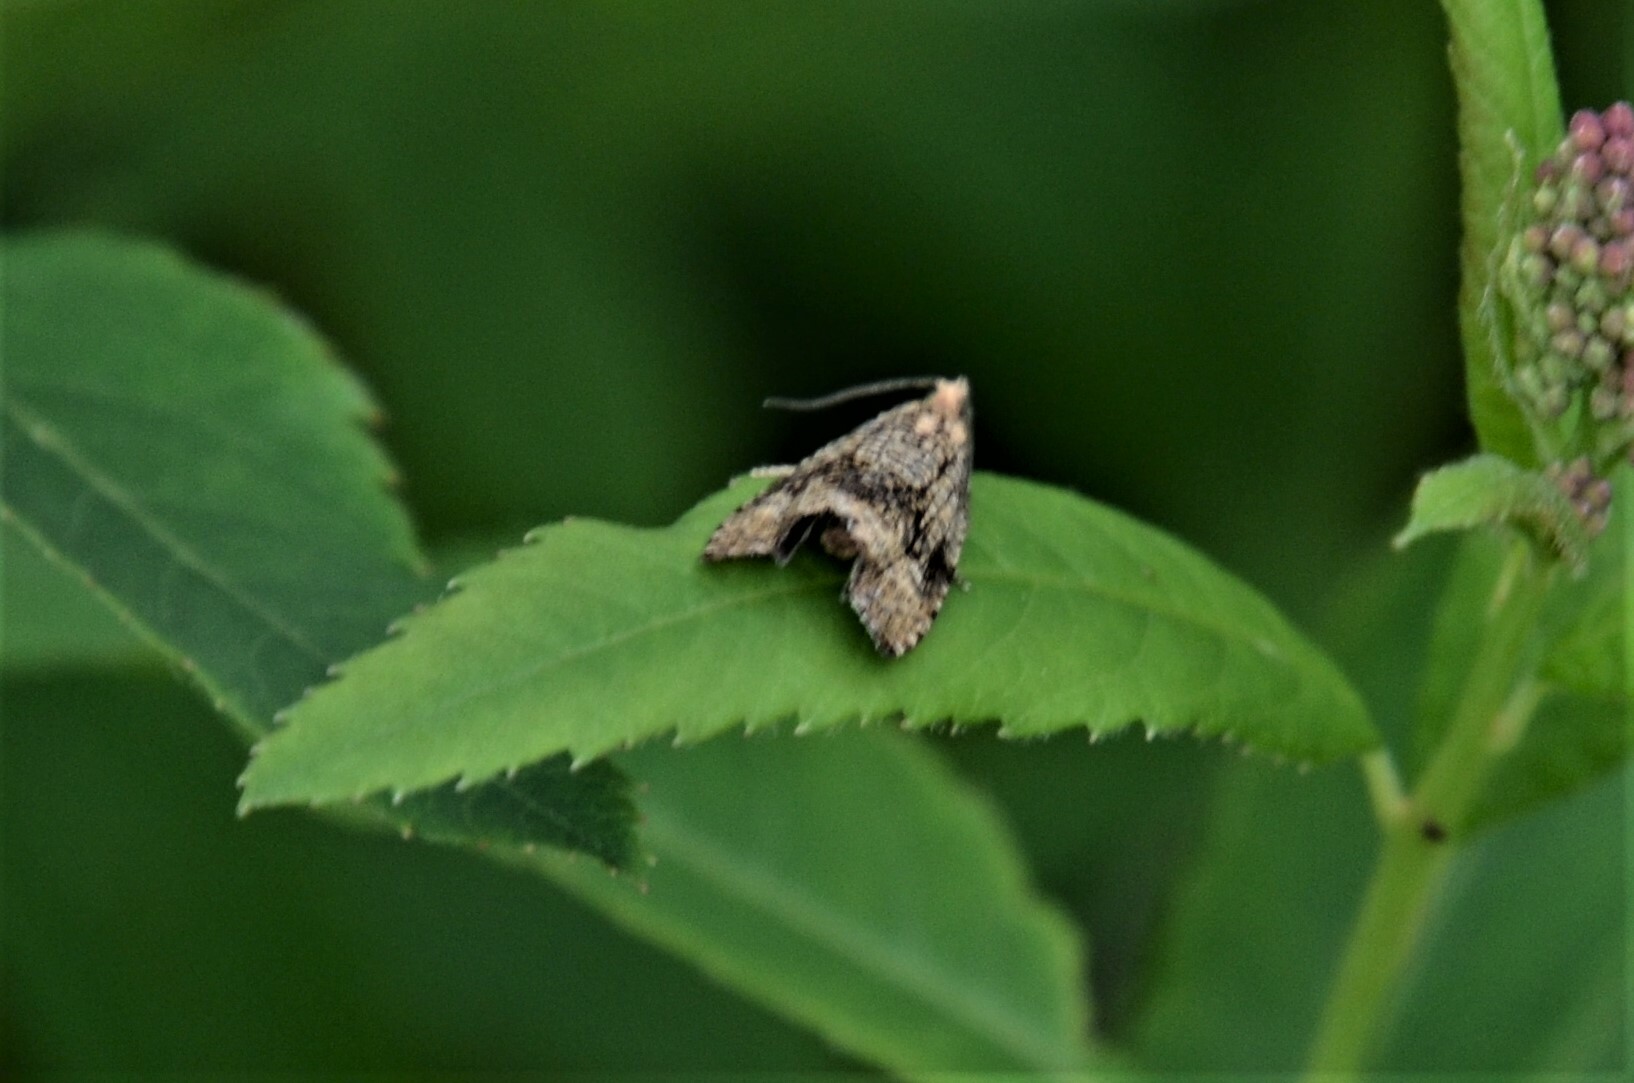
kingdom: Animalia
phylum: Arthropoda
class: Insecta
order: Lepidoptera
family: Tortricidae
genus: Syricoris
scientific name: Syricoris lacunana
